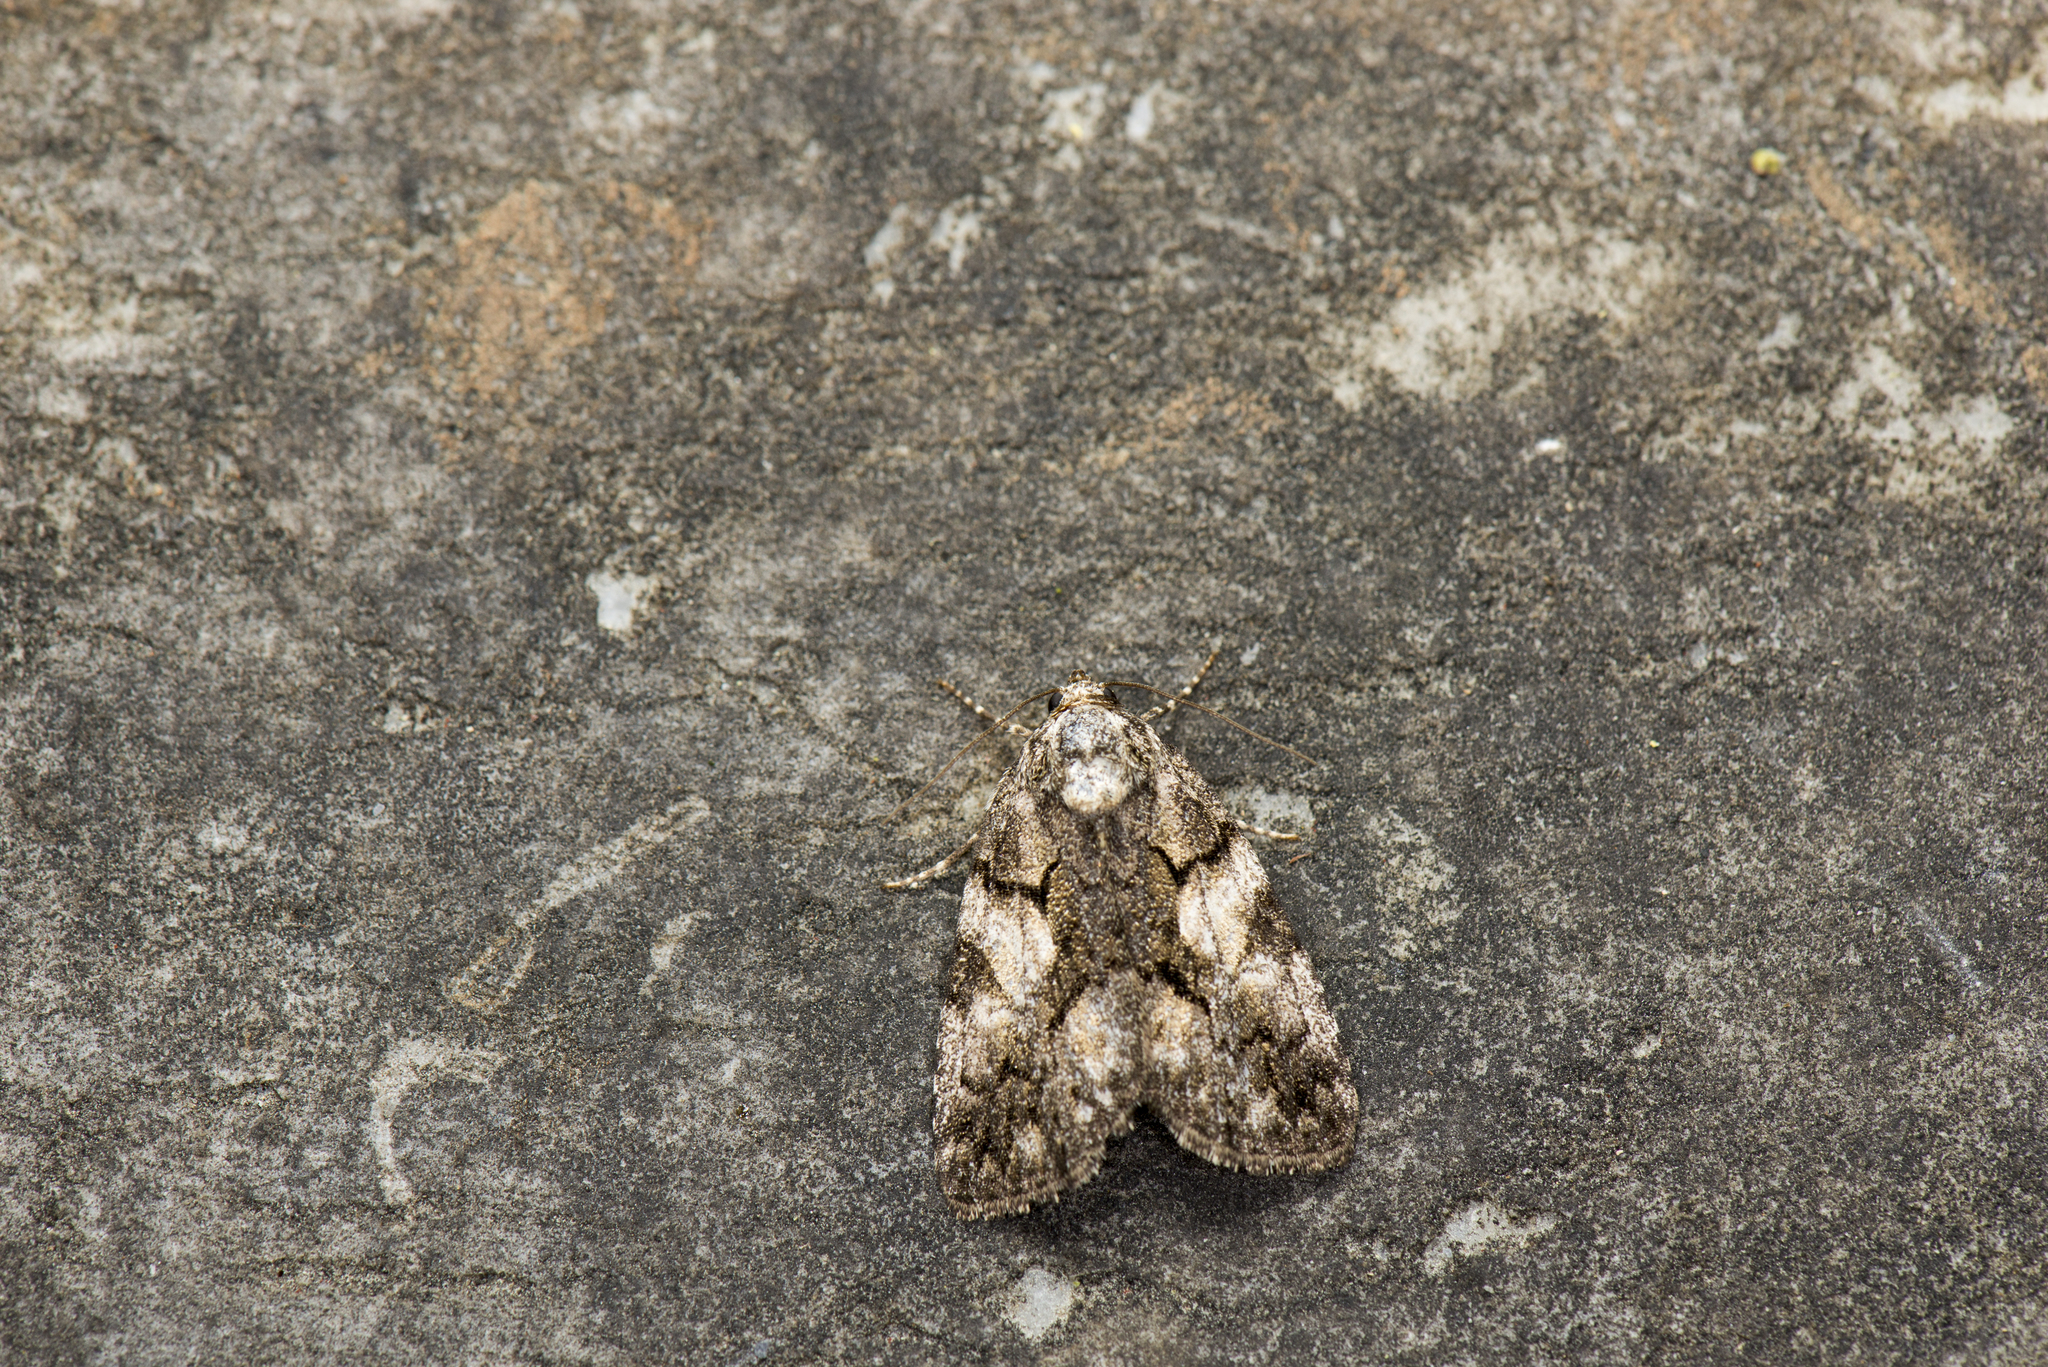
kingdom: Animalia
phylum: Arthropoda
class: Insecta
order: Lepidoptera
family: Noctuidae
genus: Gerbathodes
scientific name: Gerbathodes lichenodes
